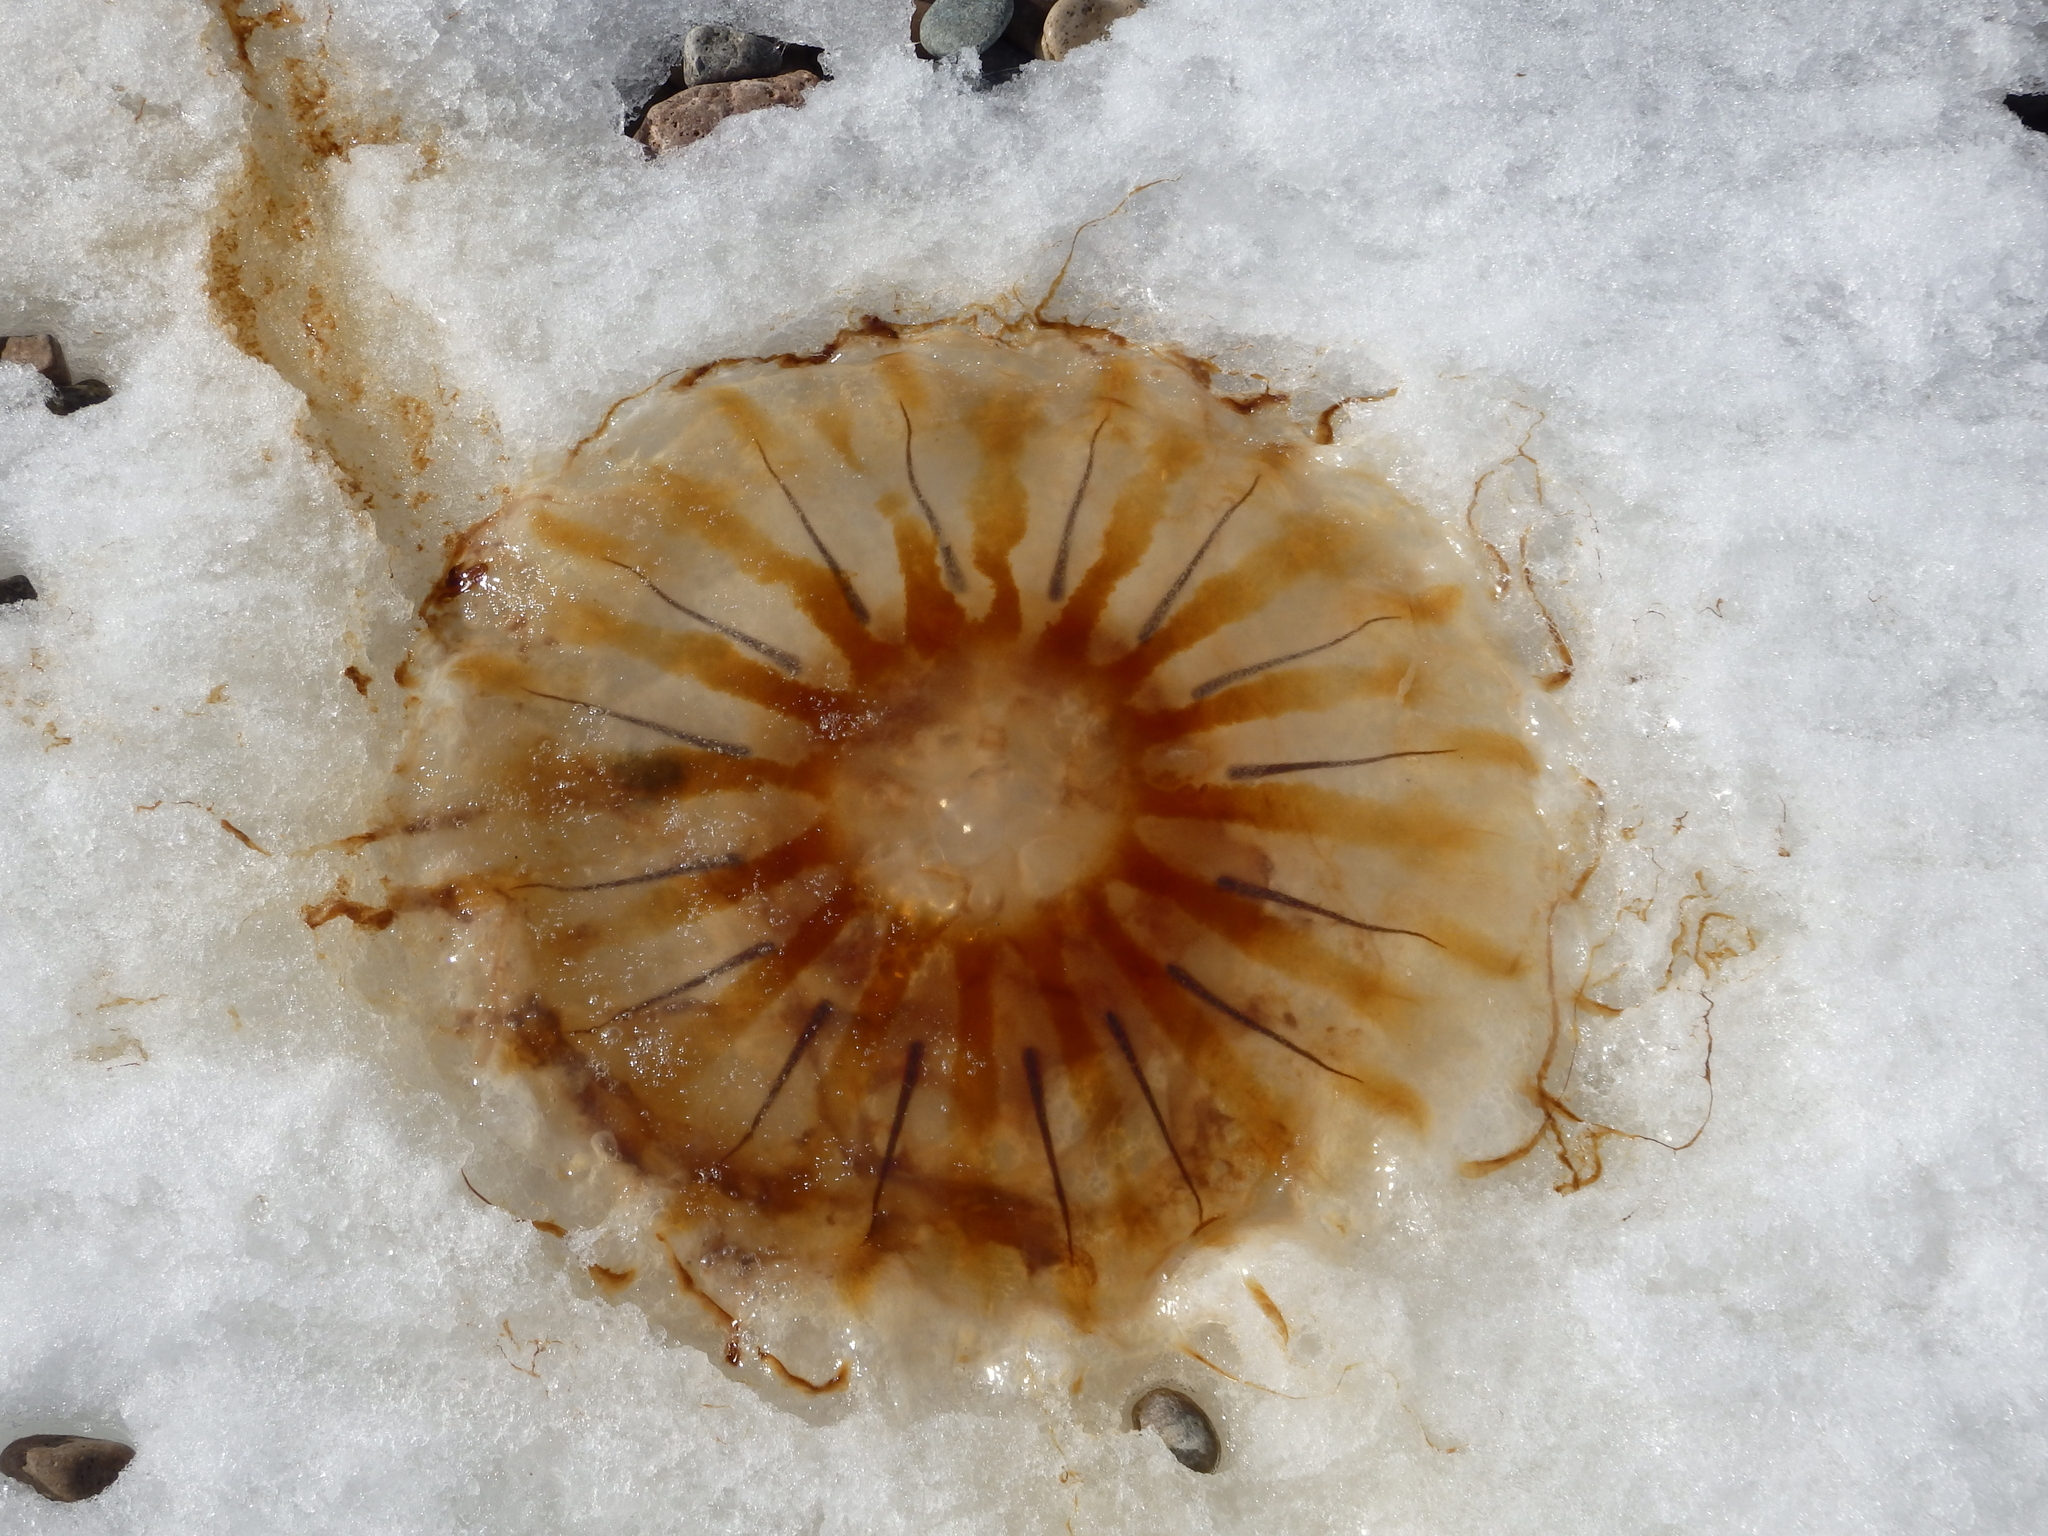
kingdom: Animalia
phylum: Cnidaria
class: Scyphozoa
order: Semaeostomeae
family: Pelagiidae
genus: Chrysaora
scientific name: Chrysaora melanaster
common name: Northern sea nettle
